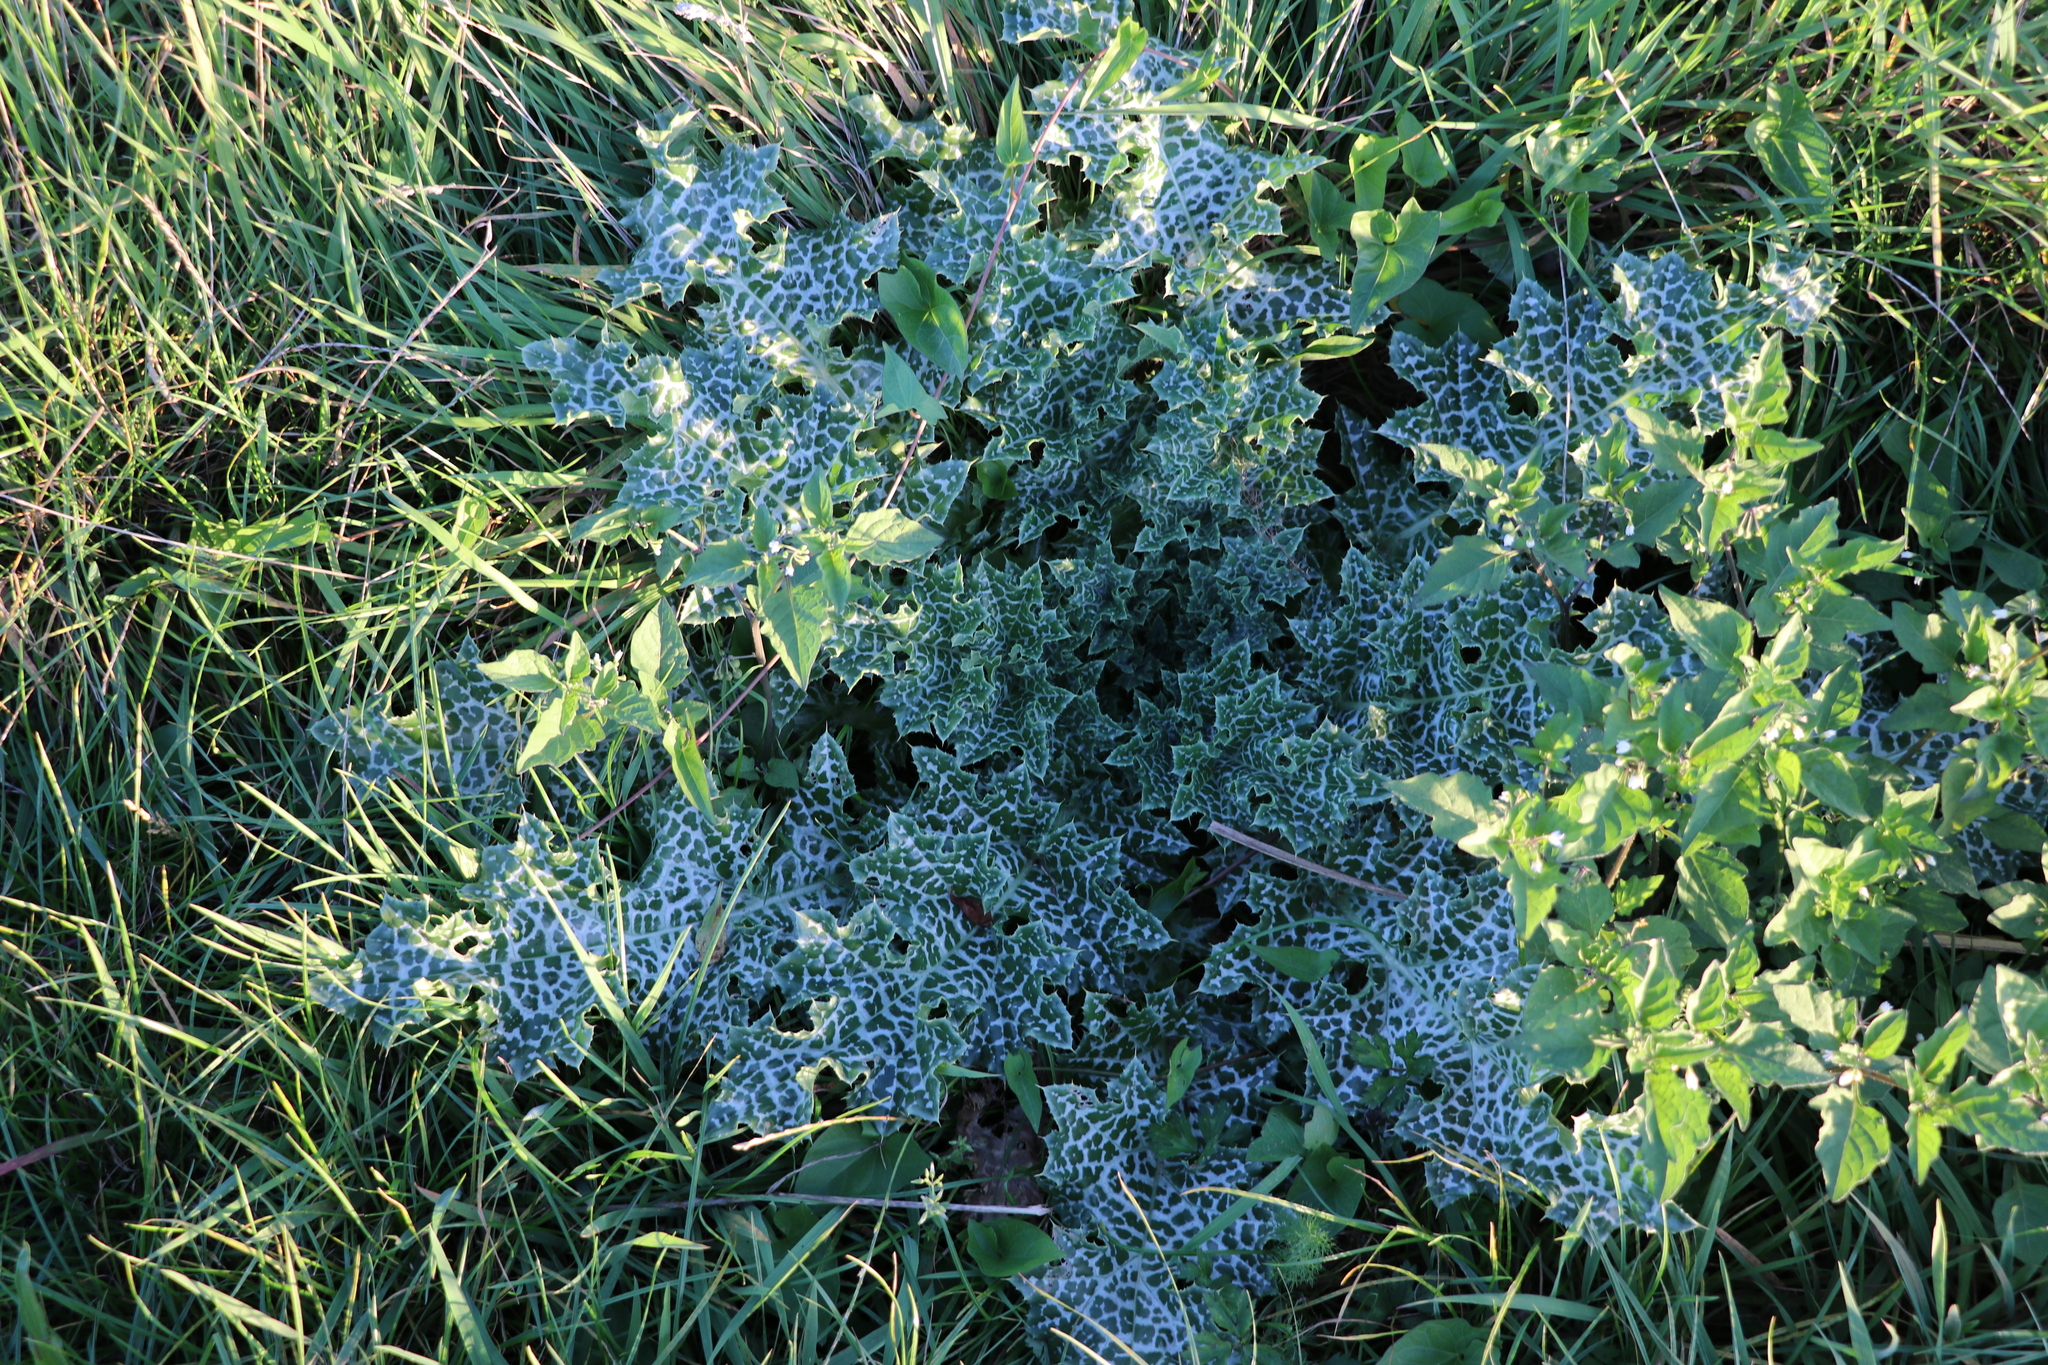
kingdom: Plantae
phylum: Tracheophyta
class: Magnoliopsida
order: Asterales
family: Asteraceae
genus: Silybum
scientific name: Silybum marianum
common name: Milk thistle
